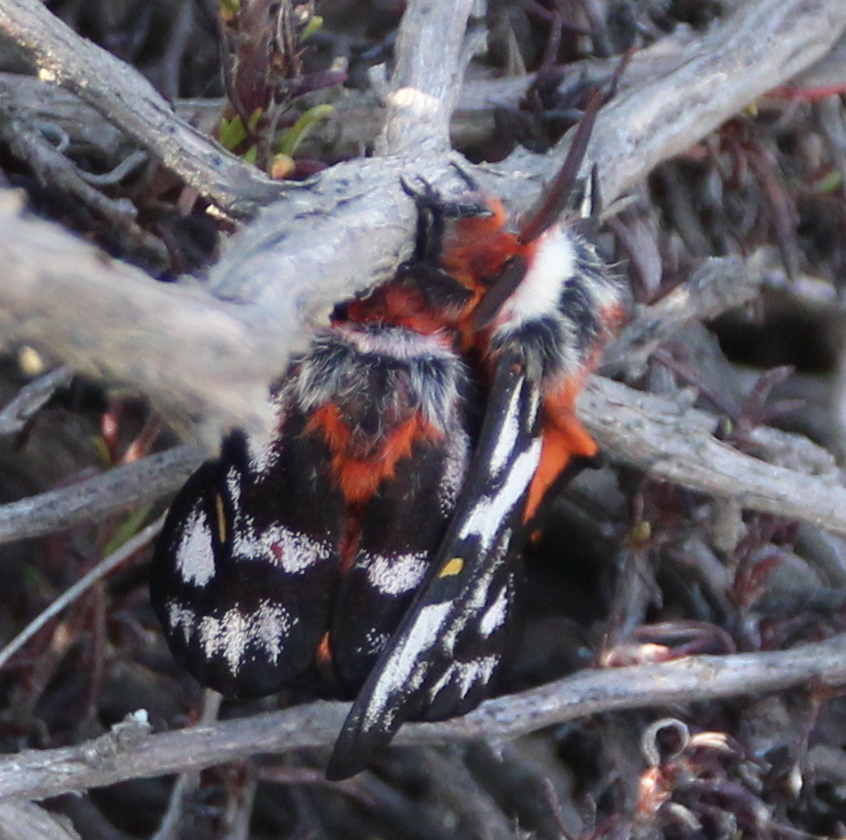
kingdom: Animalia
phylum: Arthropoda
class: Insecta
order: Lepidoptera
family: Saturniidae
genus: Hemileuca
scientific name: Hemileuca electra
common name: Electra buckmoth
